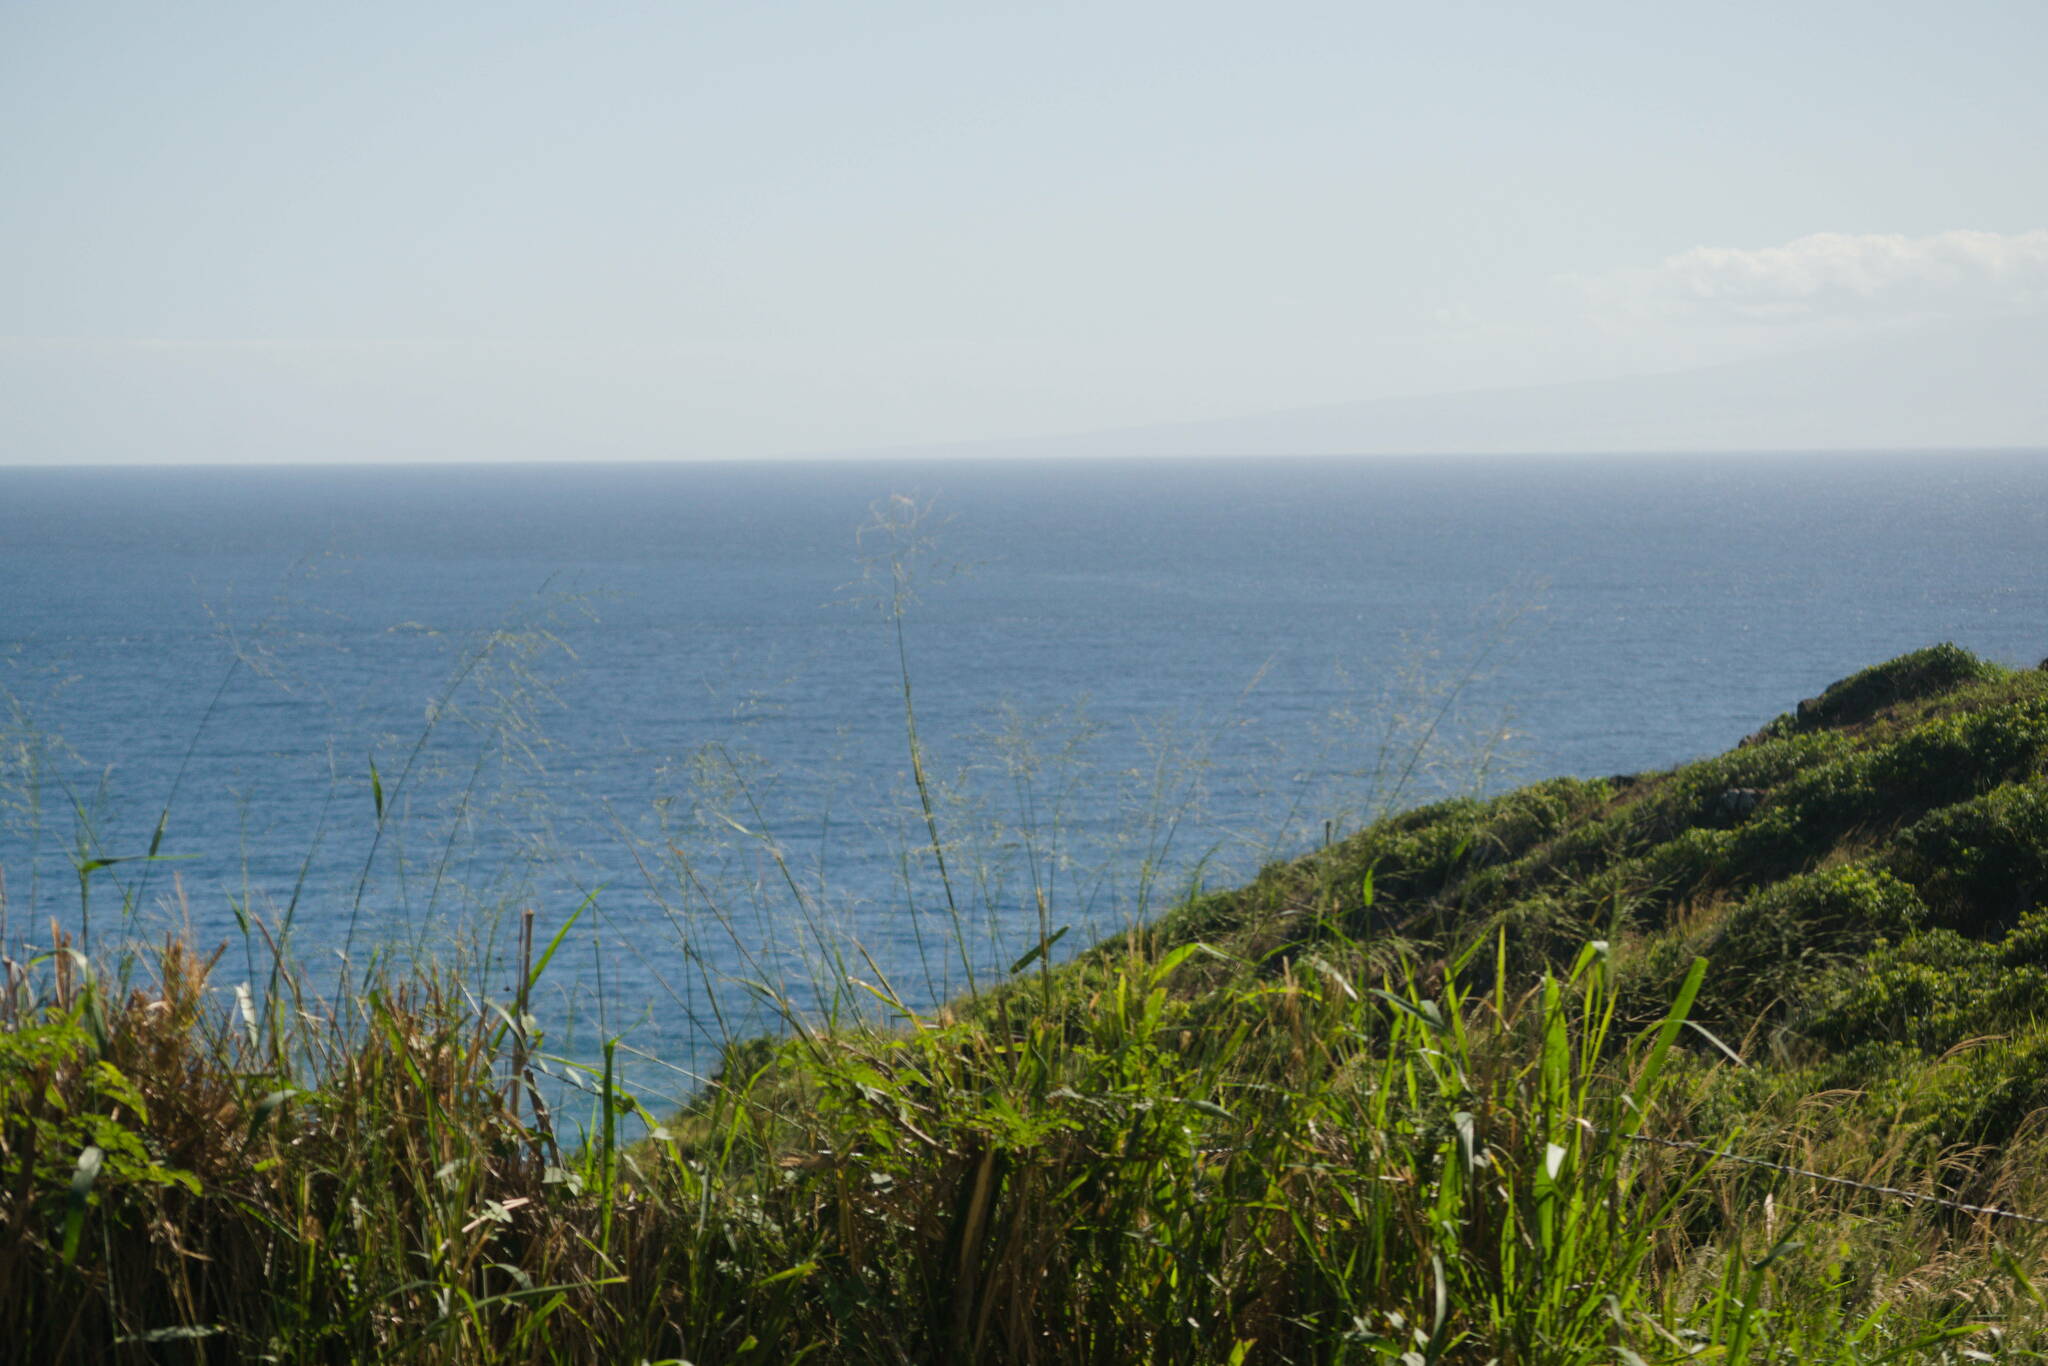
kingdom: Plantae
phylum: Tracheophyta
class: Liliopsida
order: Poales
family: Poaceae
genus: Megathyrsus
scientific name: Megathyrsus maximus
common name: Guineagrass
